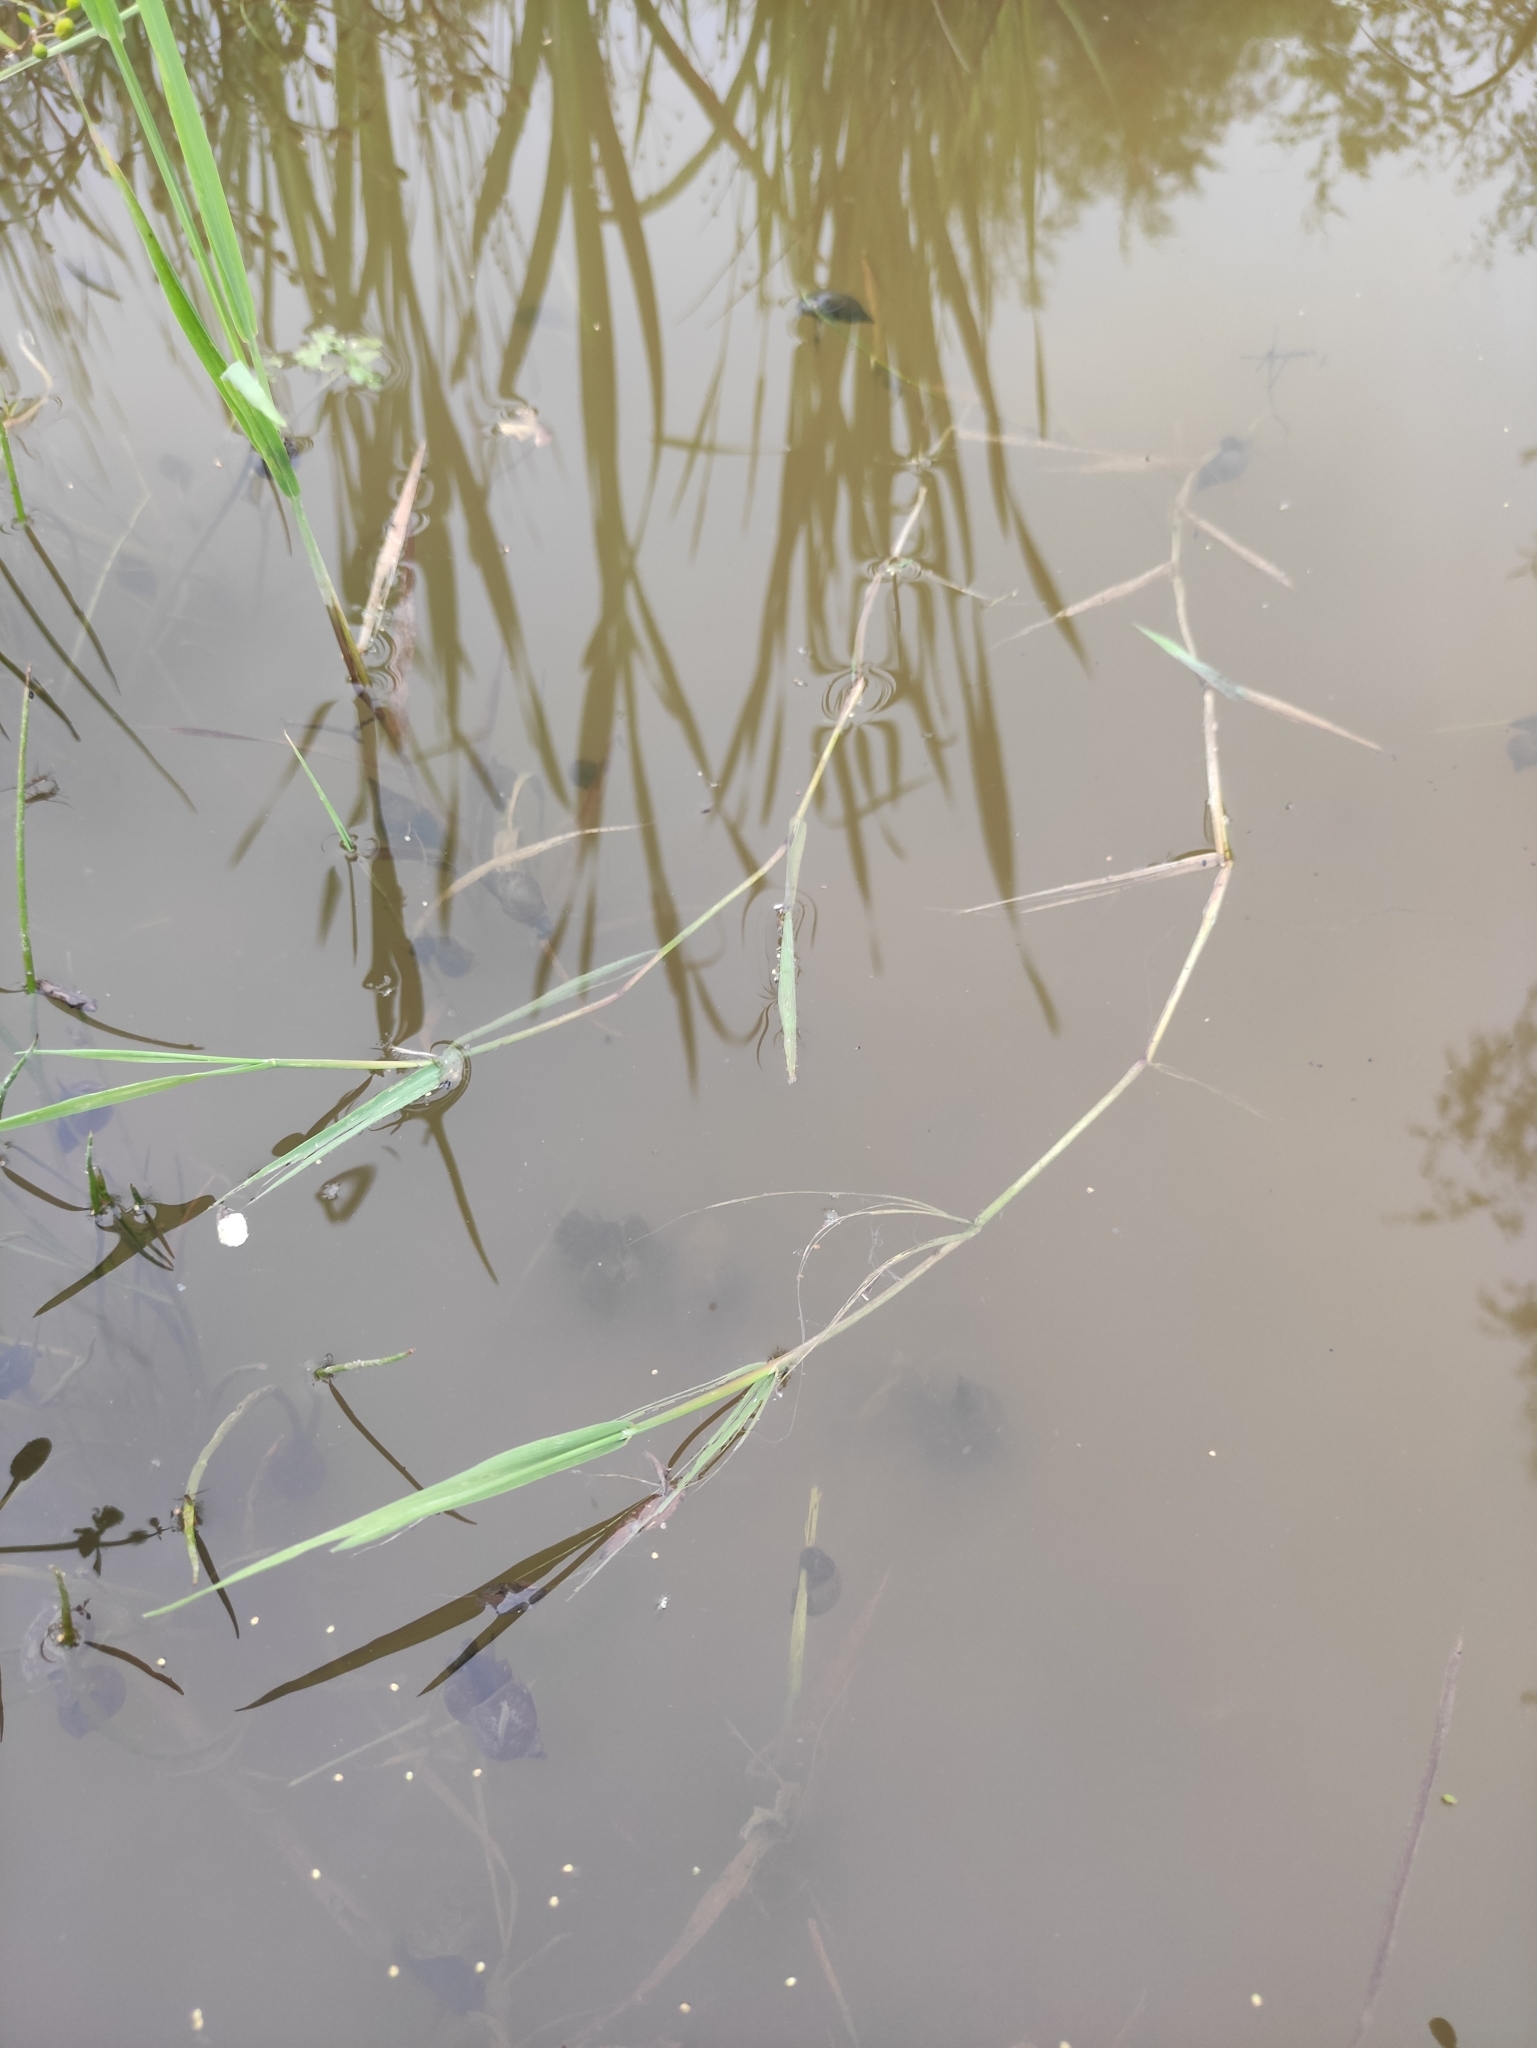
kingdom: Plantae
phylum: Tracheophyta
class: Liliopsida
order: Poales
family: Poaceae
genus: Agrostis
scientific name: Agrostis stolonifera
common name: Creeping bentgrass
